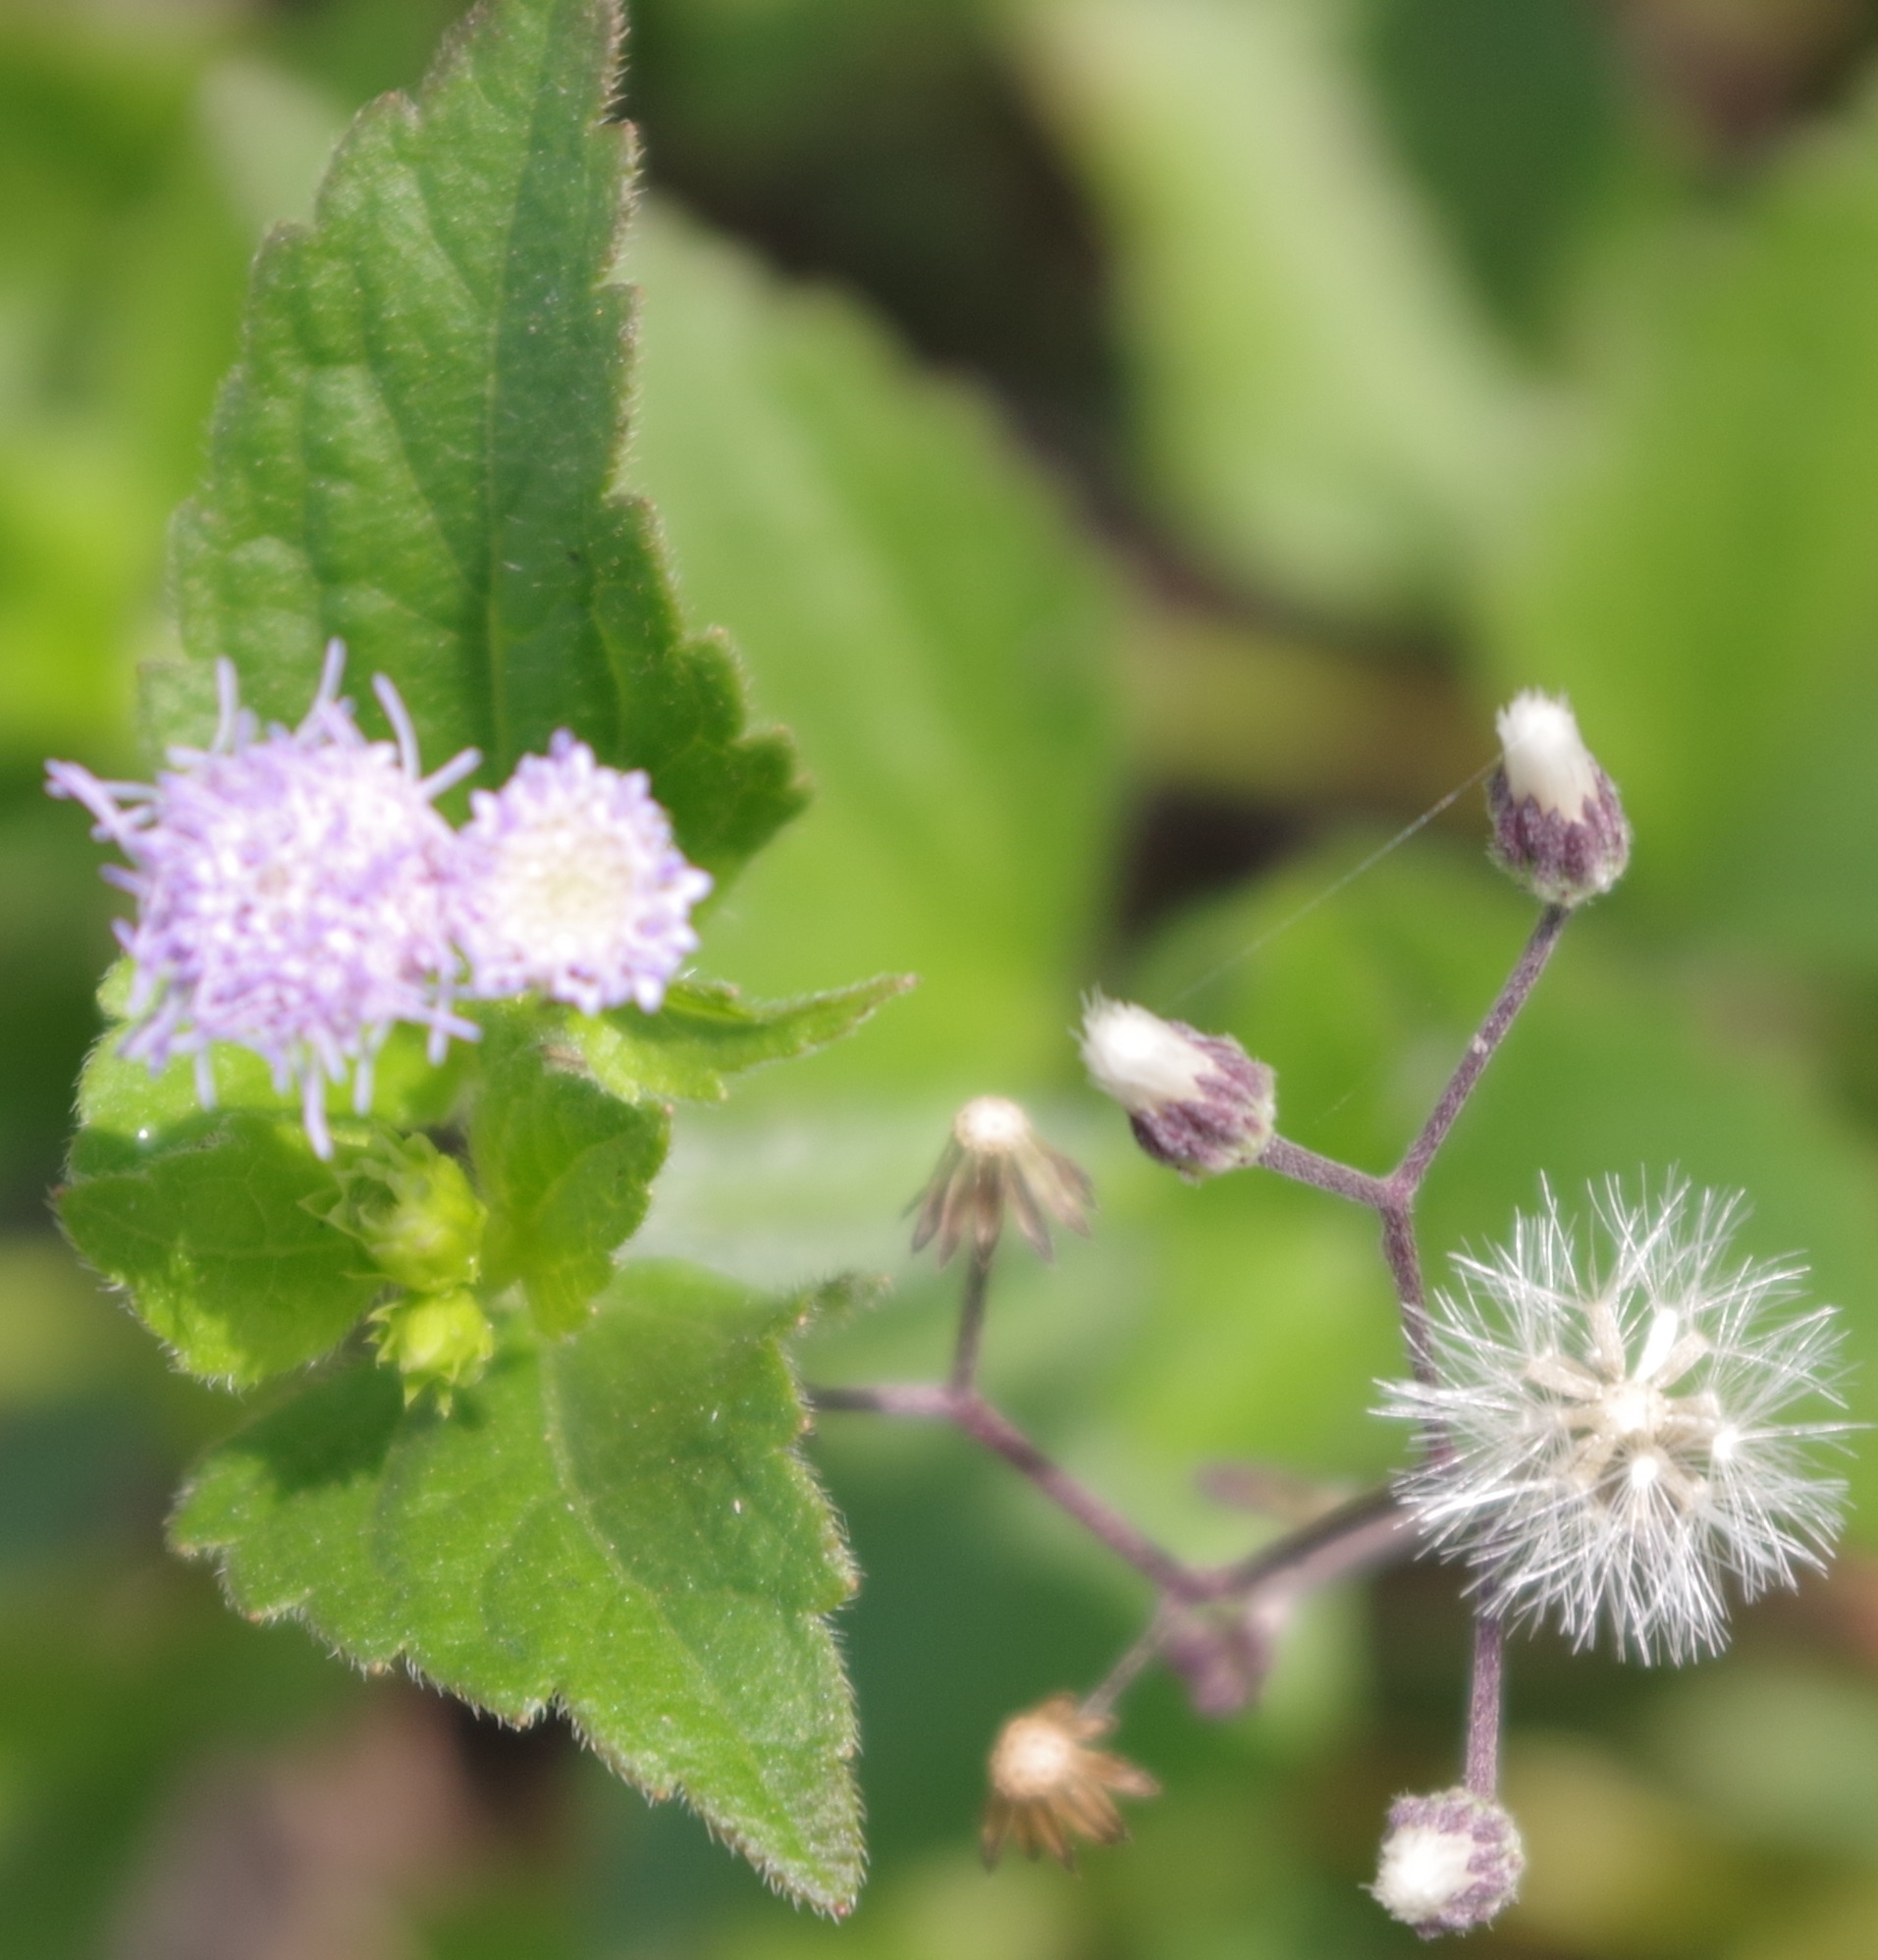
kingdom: Plantae
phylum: Tracheophyta
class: Magnoliopsida
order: Asterales
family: Asteraceae
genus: Praxelis
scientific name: Praxelis clematidea
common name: Praxelis
